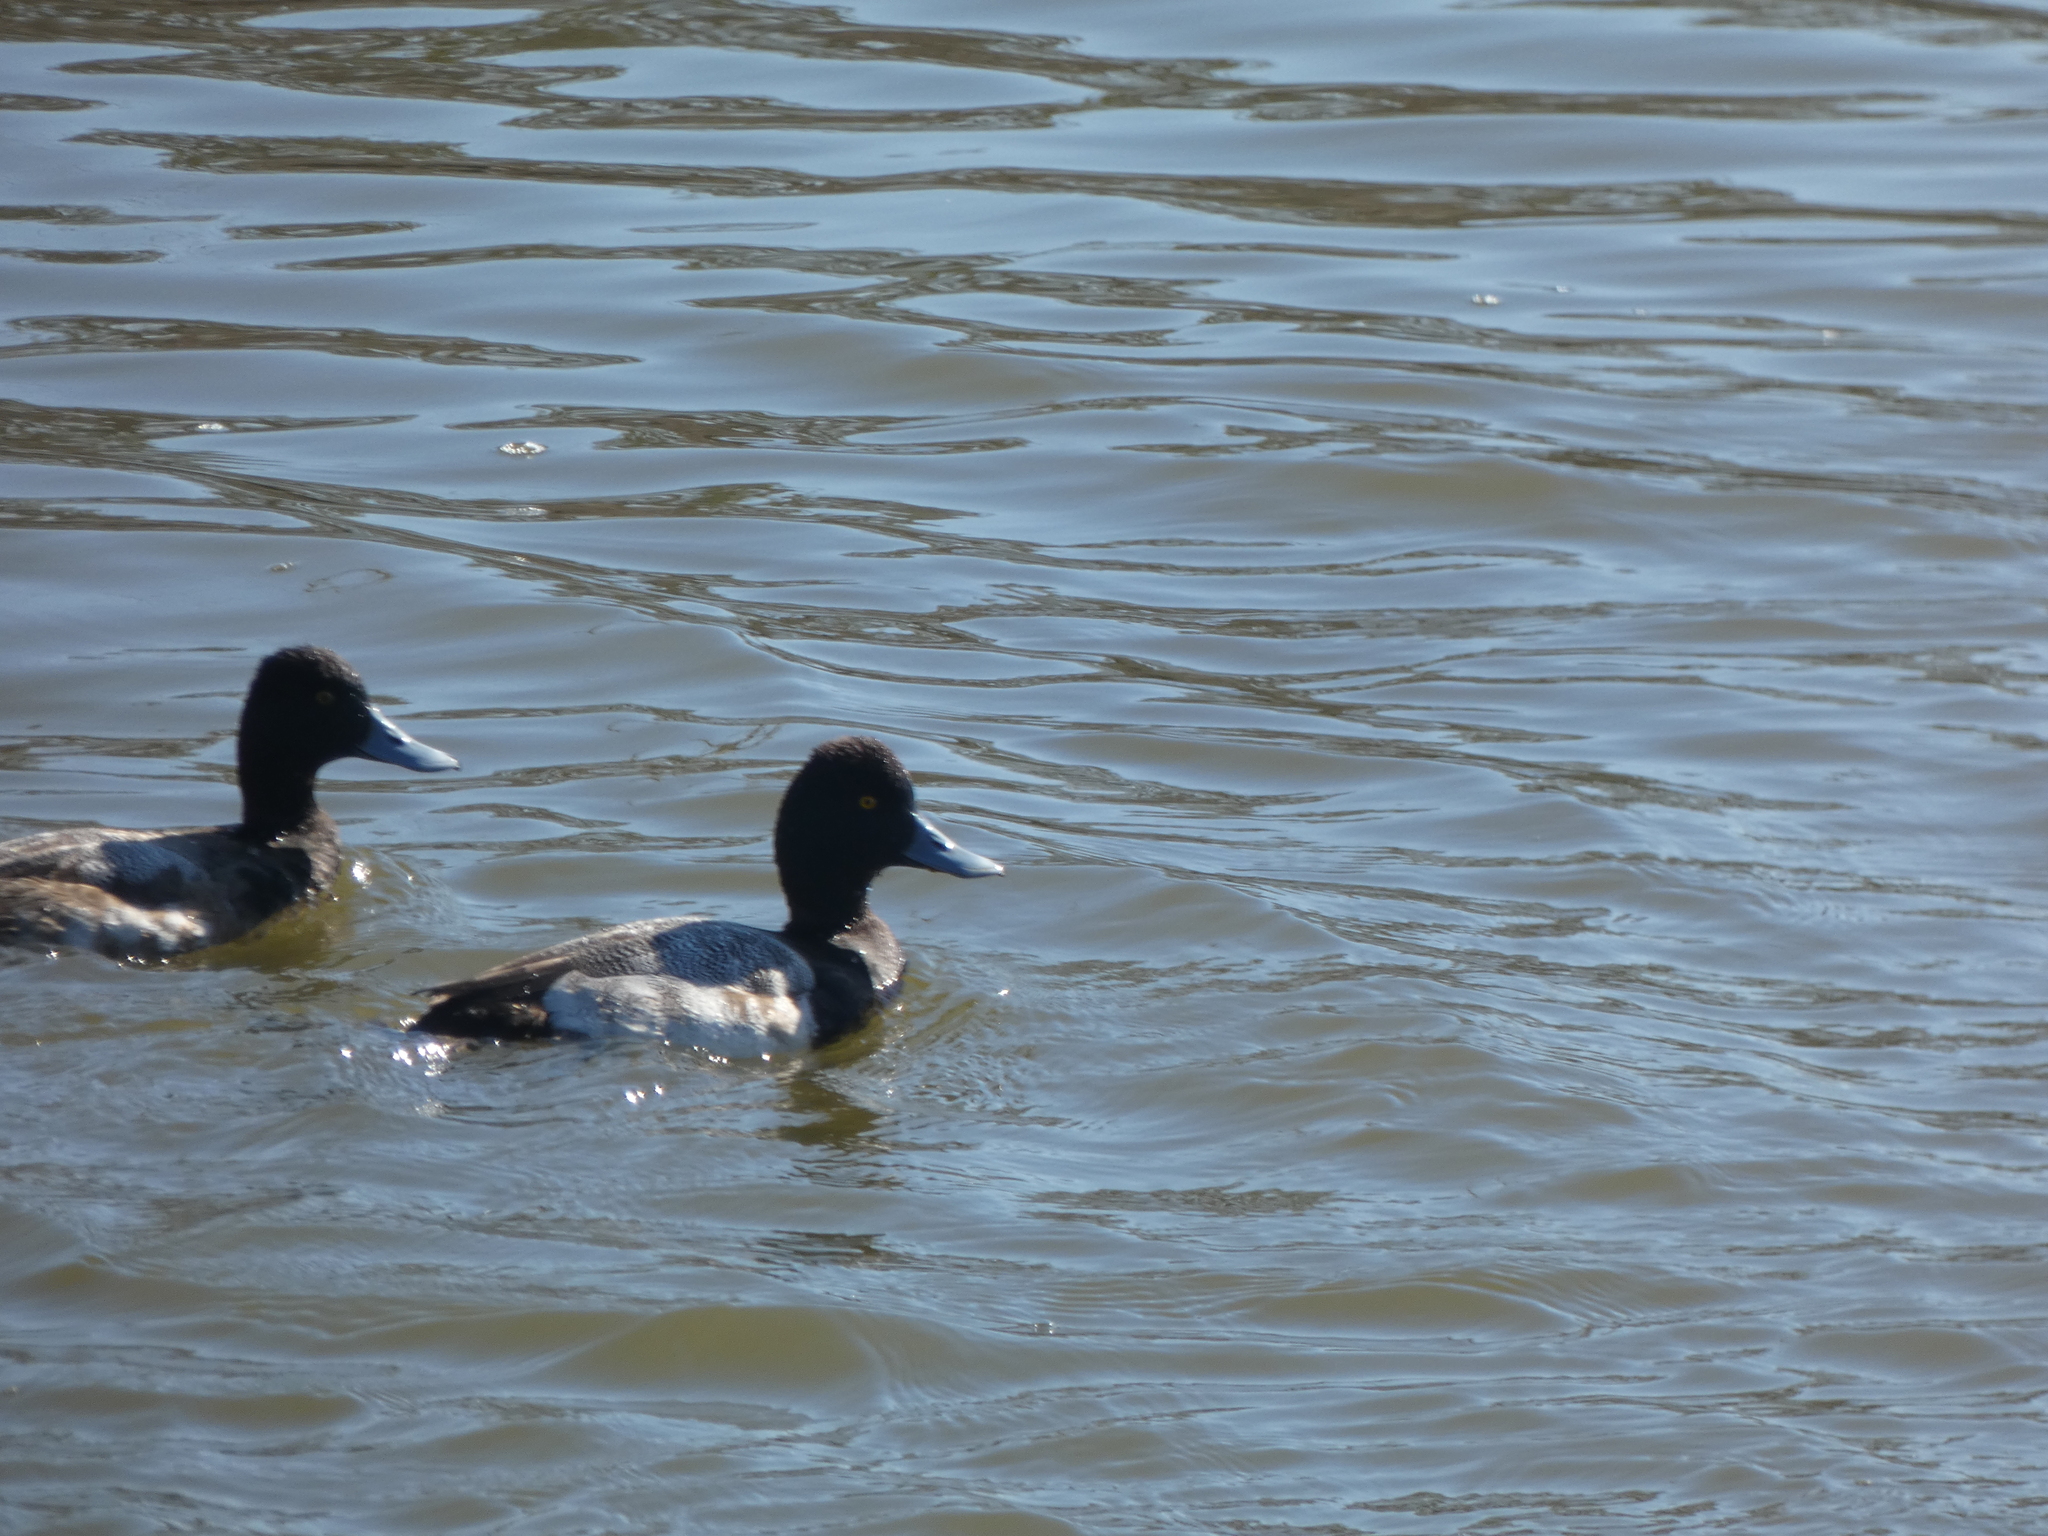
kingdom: Animalia
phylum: Chordata
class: Aves
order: Anseriformes
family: Anatidae
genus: Aythya
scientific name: Aythya affinis
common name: Lesser scaup
